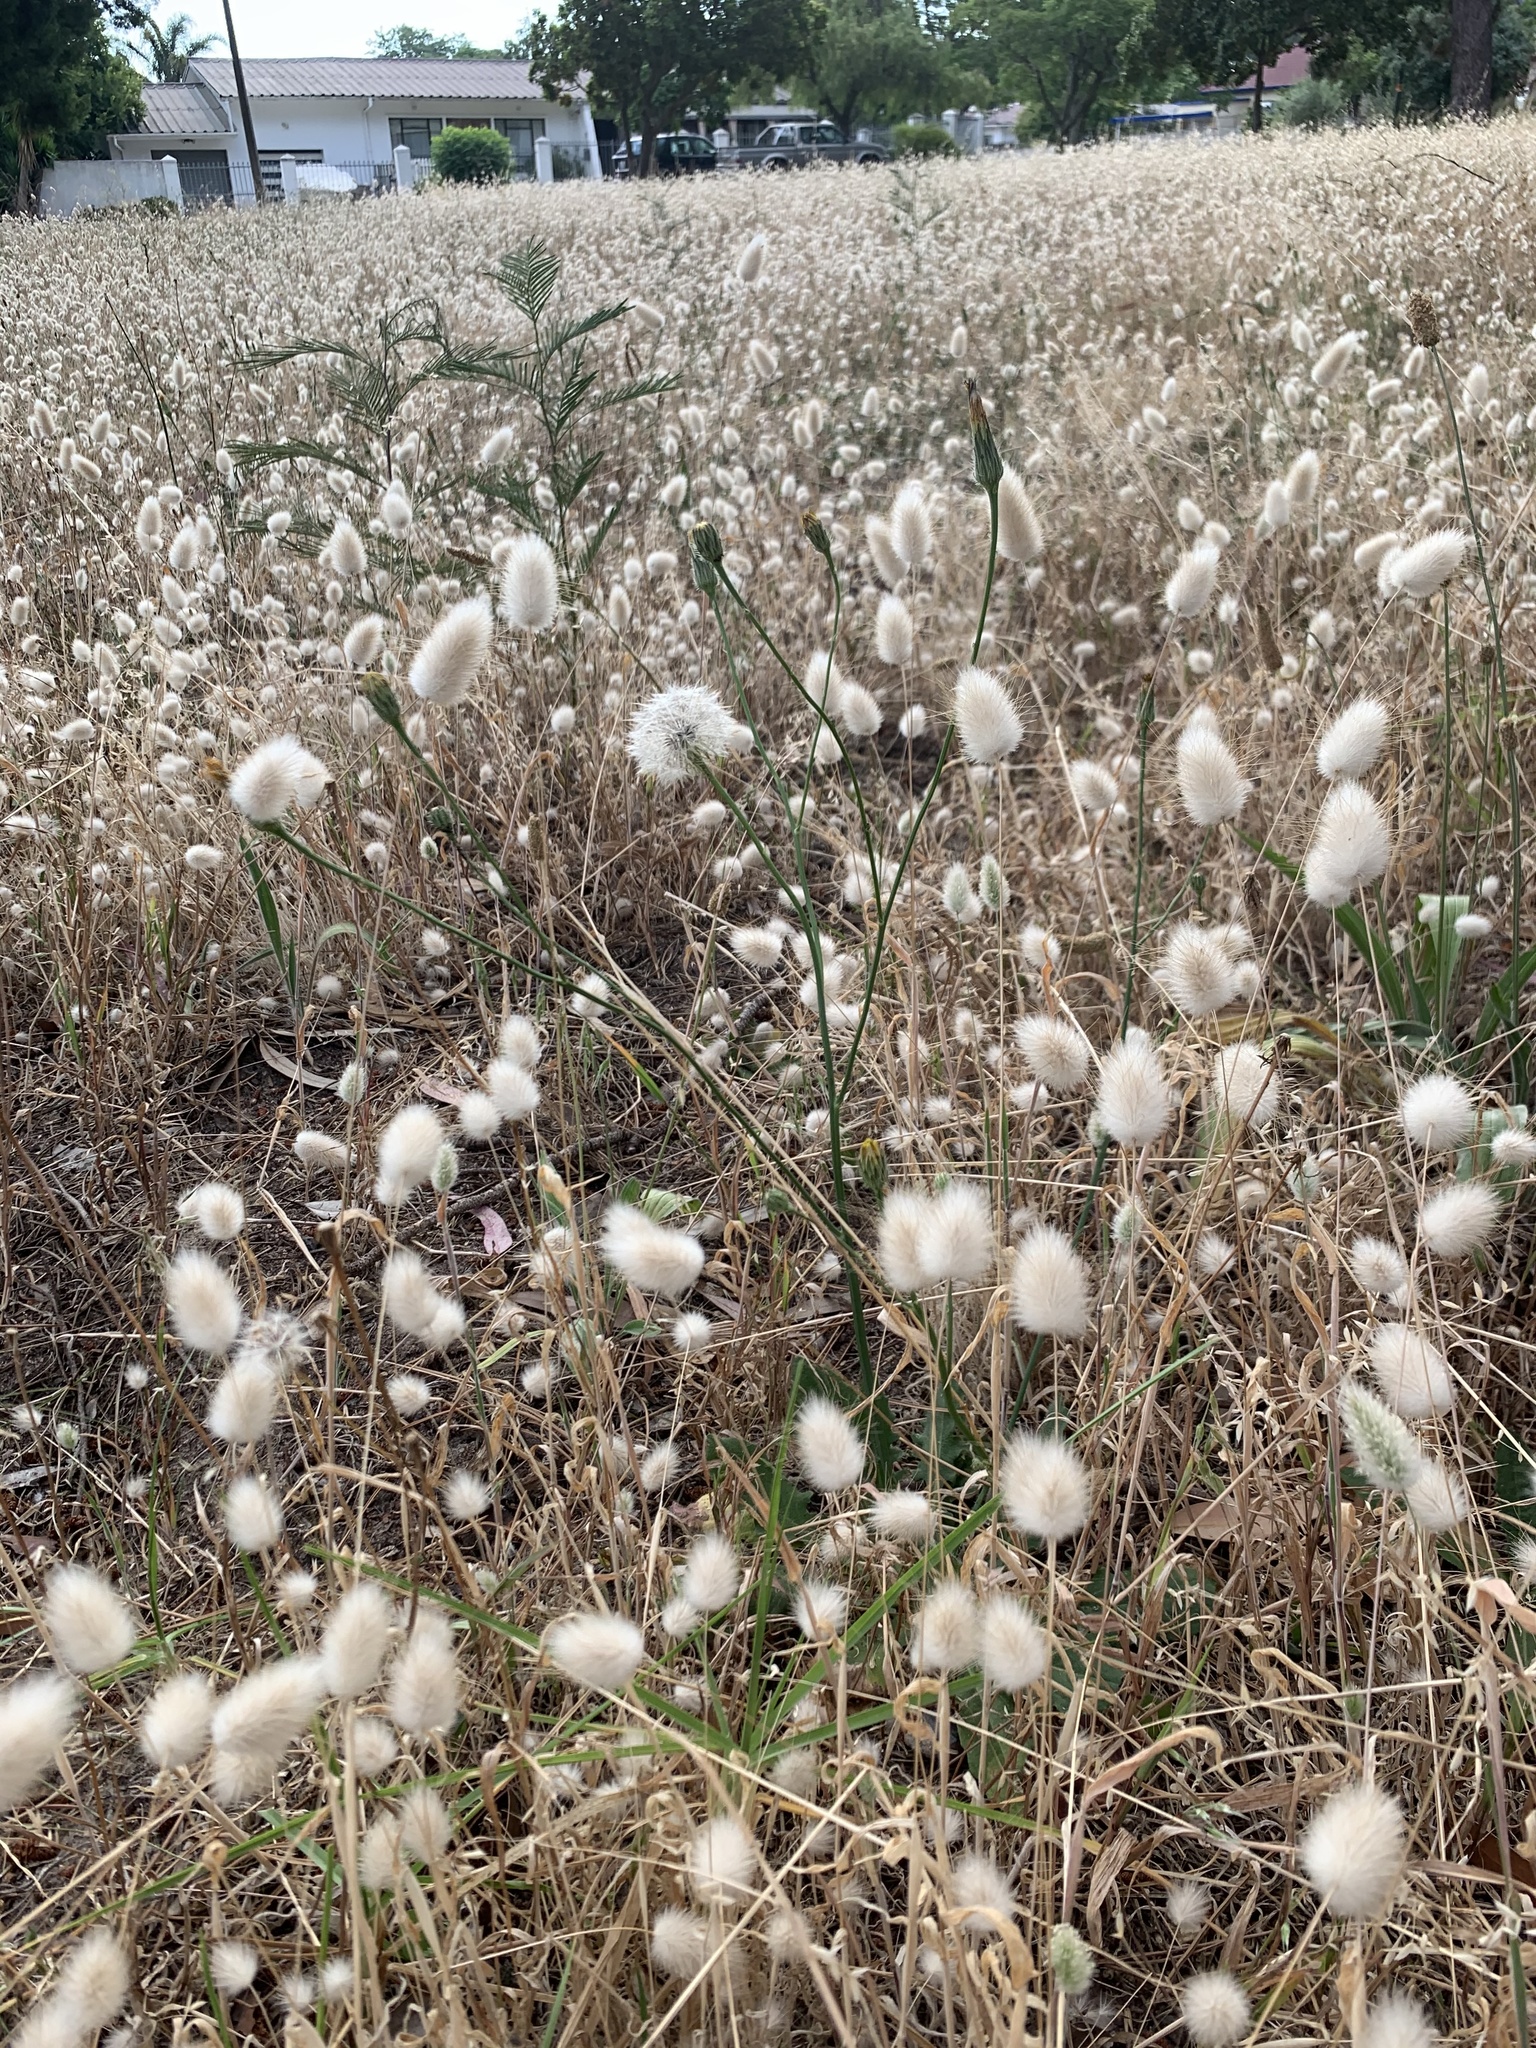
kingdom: Plantae
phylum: Tracheophyta
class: Liliopsida
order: Poales
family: Poaceae
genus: Lagurus
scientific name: Lagurus ovatus
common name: Hare's-tail
